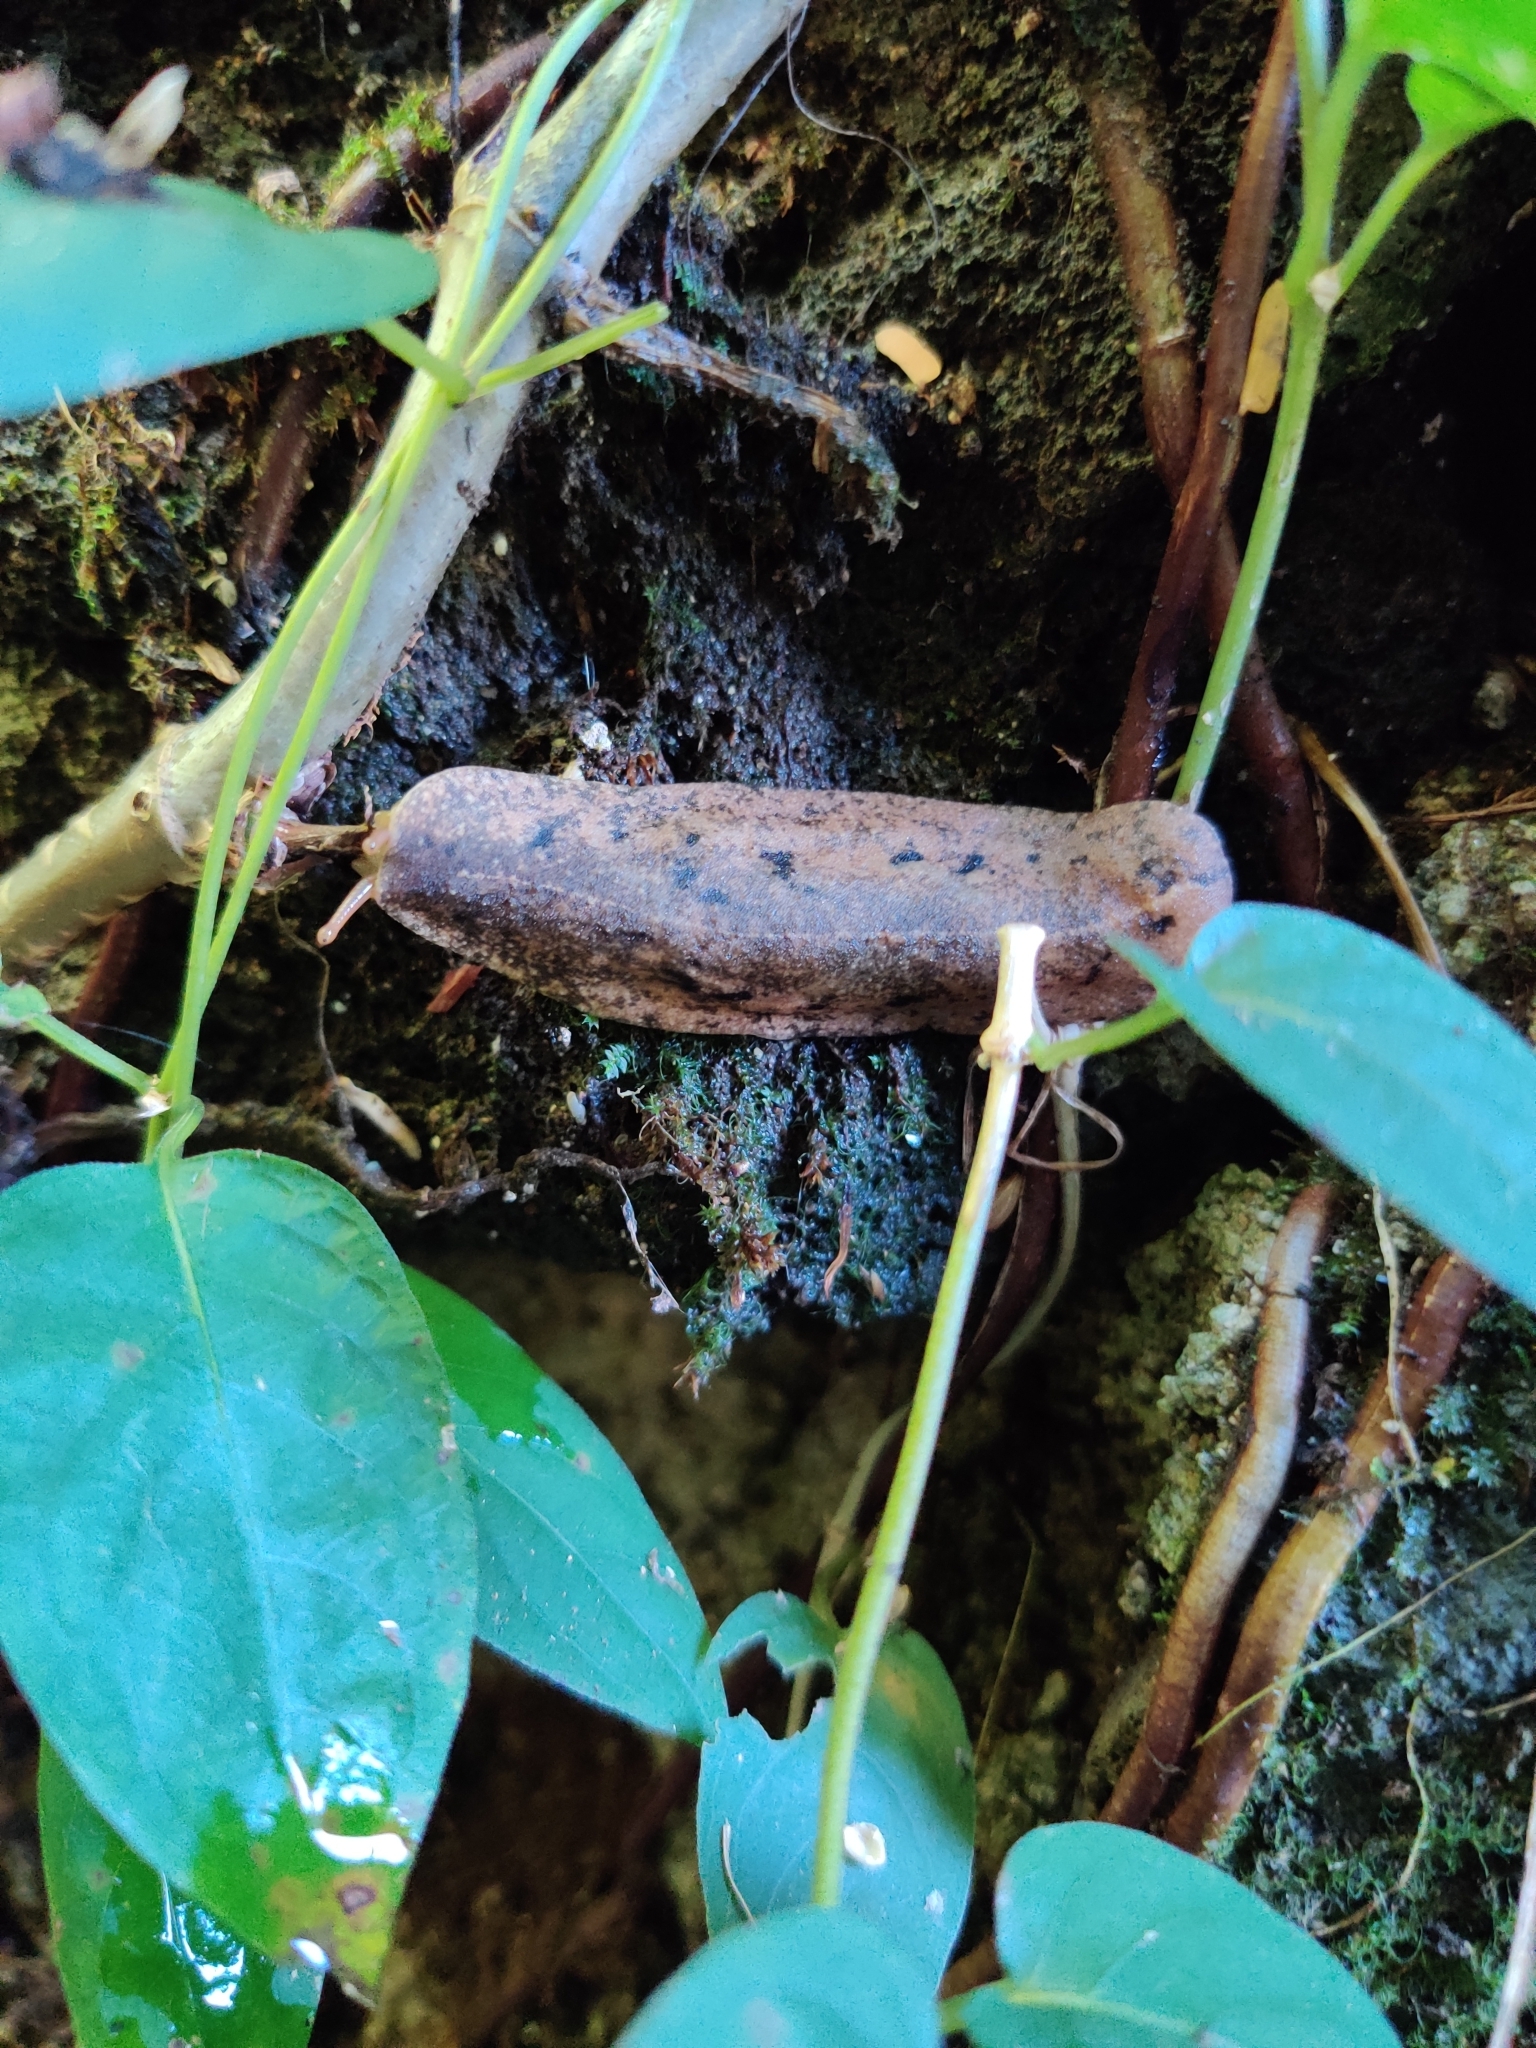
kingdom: Animalia
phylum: Mollusca
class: Gastropoda
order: Systellommatophora
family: Veronicellidae
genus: Veronicella
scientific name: Veronicella cubensis
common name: Two striped slug
